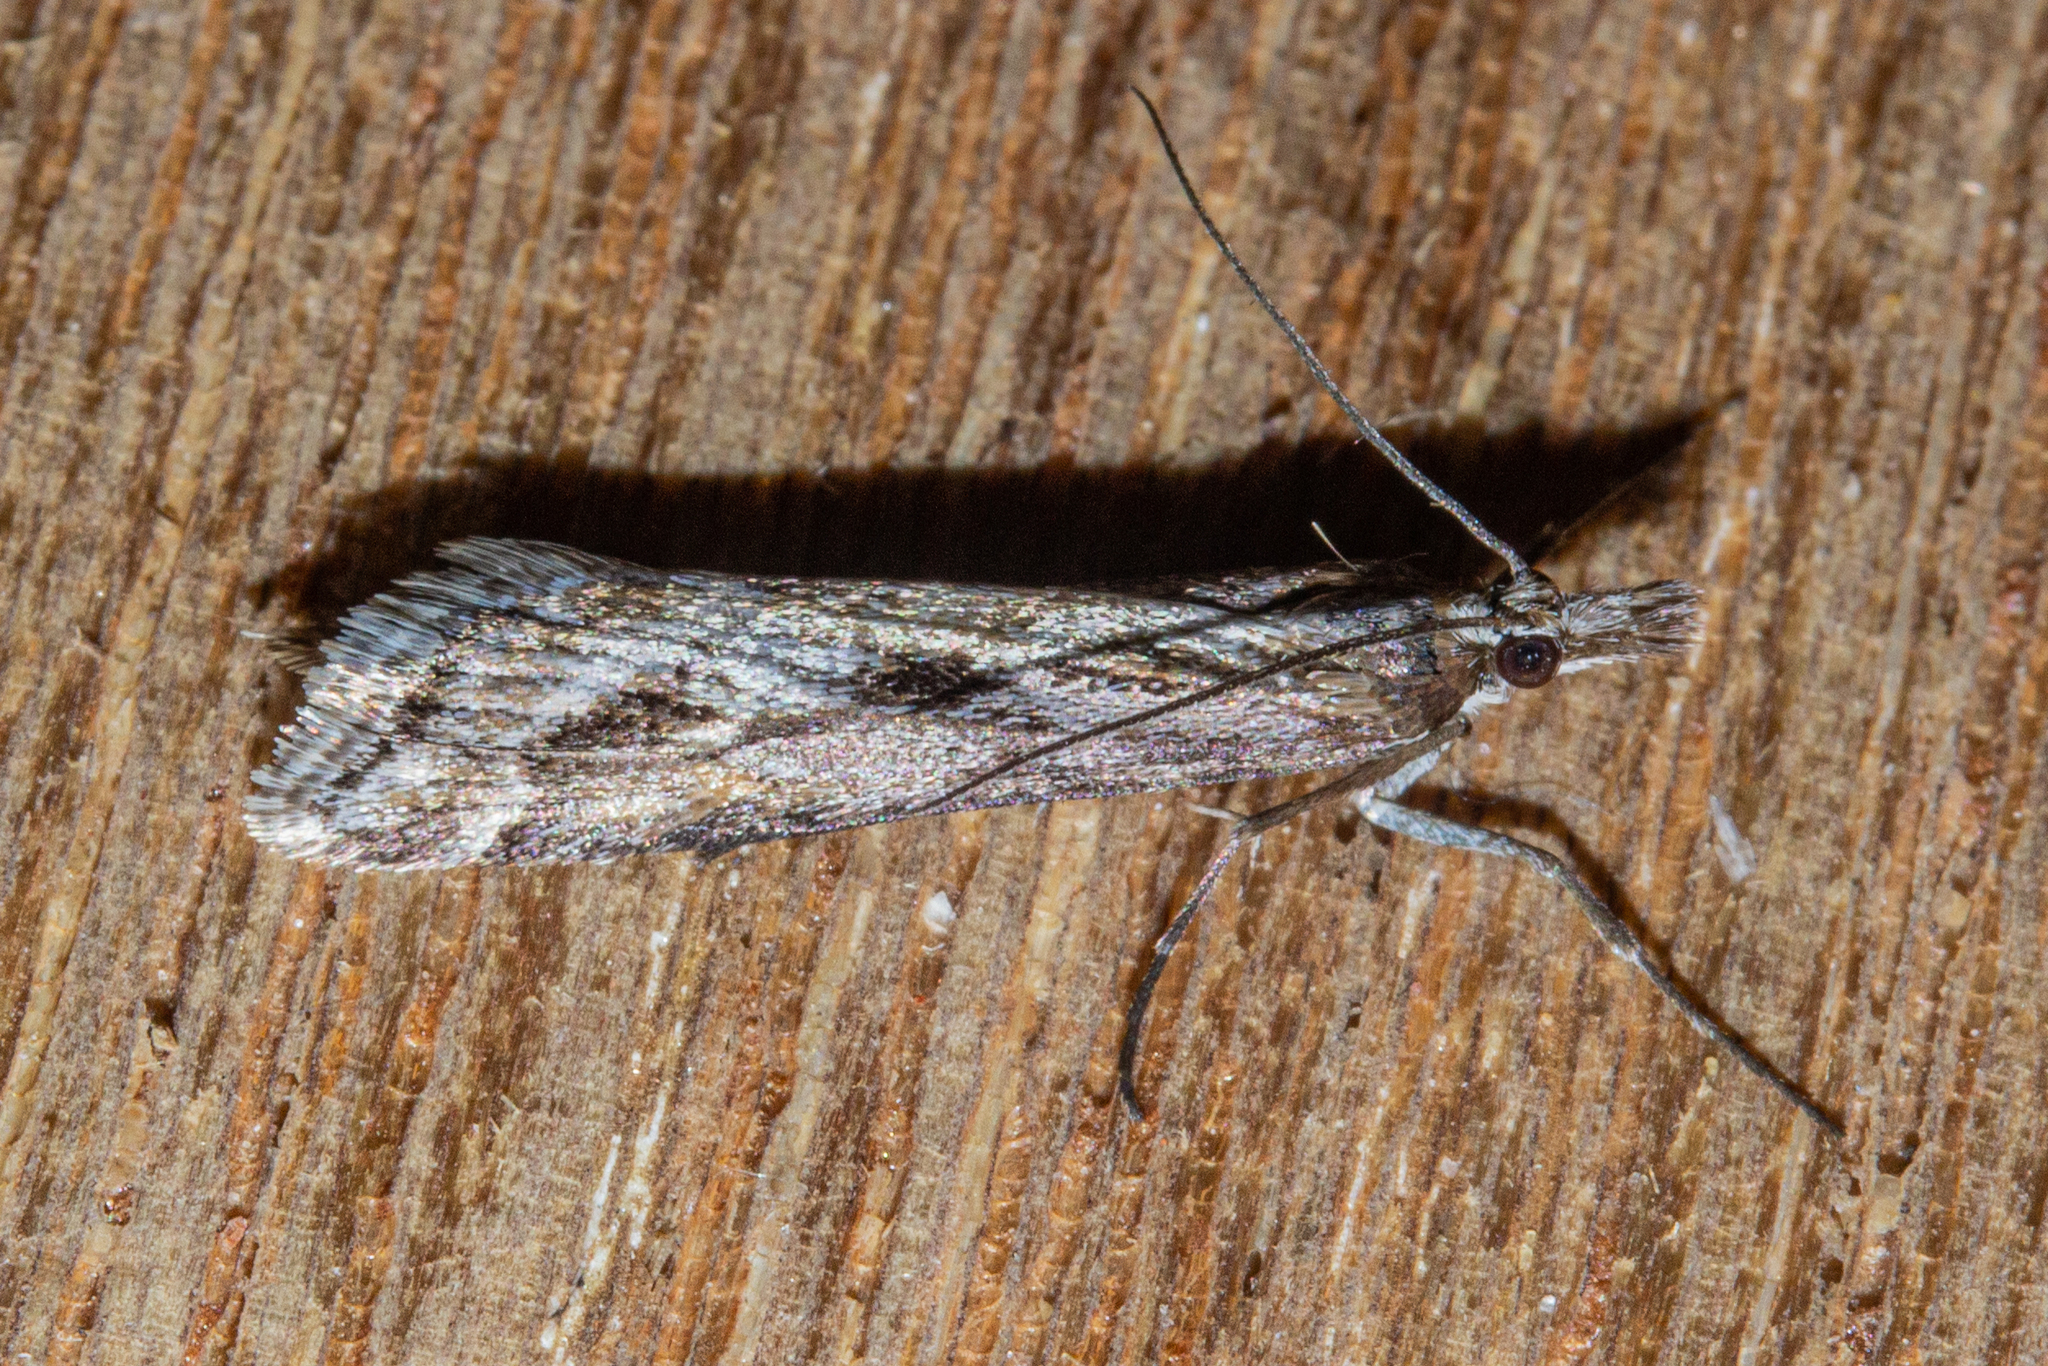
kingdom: Animalia
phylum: Arthropoda
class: Insecta
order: Lepidoptera
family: Crambidae
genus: Scoparia
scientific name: Scoparia exilis
